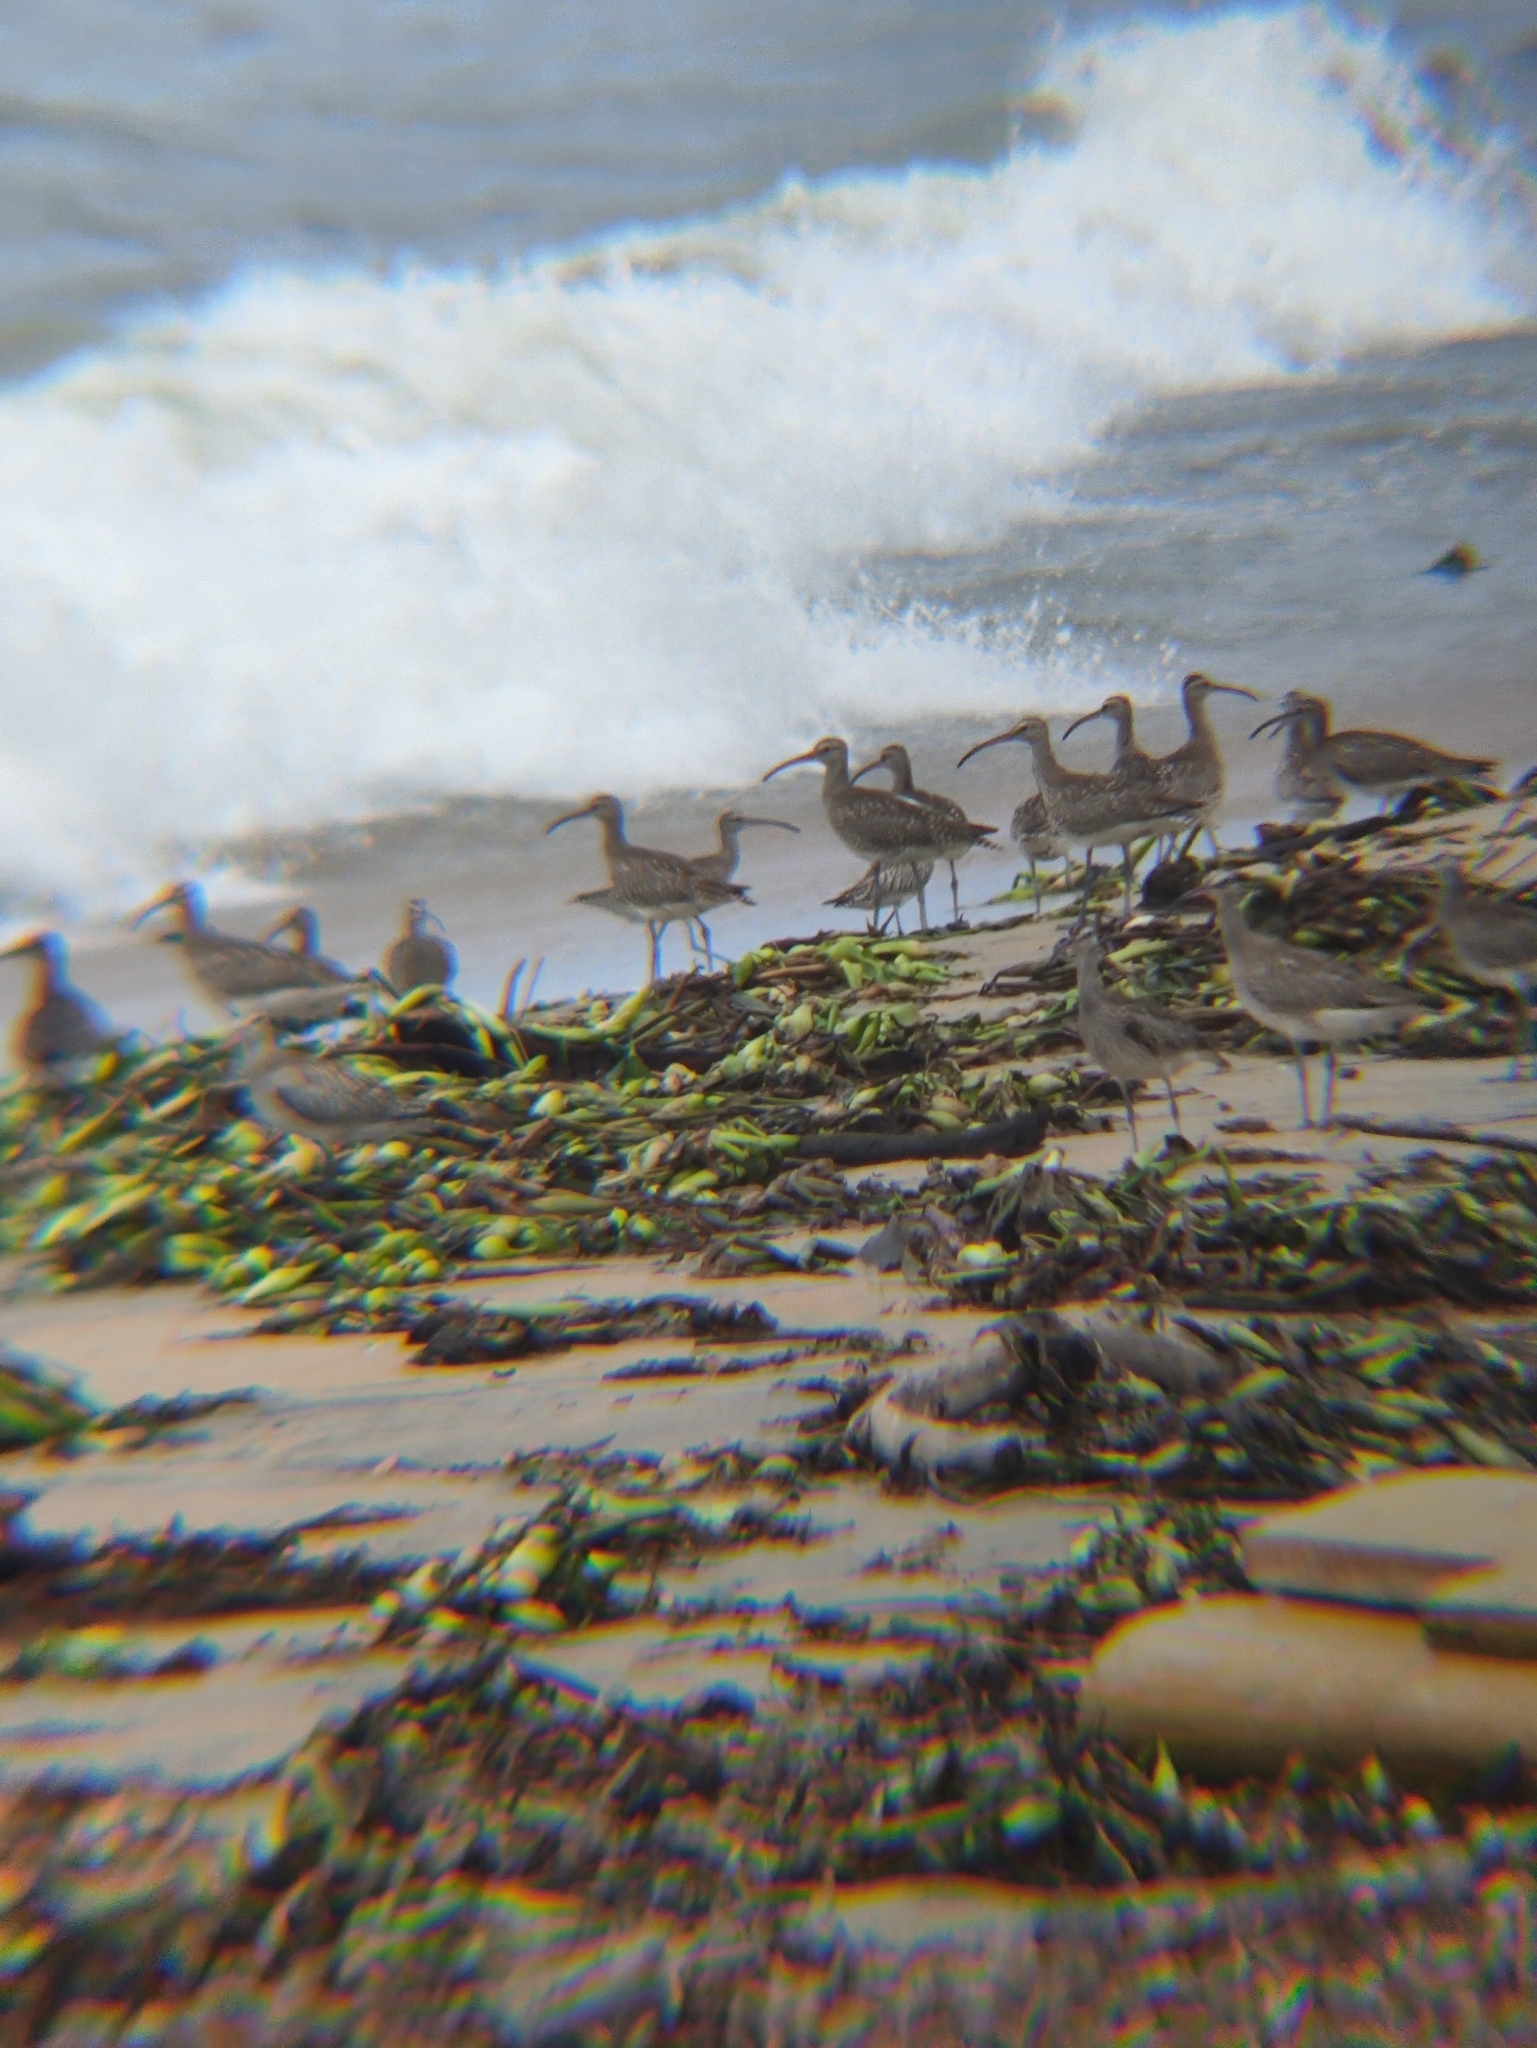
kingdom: Animalia
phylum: Chordata
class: Aves
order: Charadriiformes
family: Scolopacidae
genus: Numenius
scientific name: Numenius phaeopus
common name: Whimbrel
